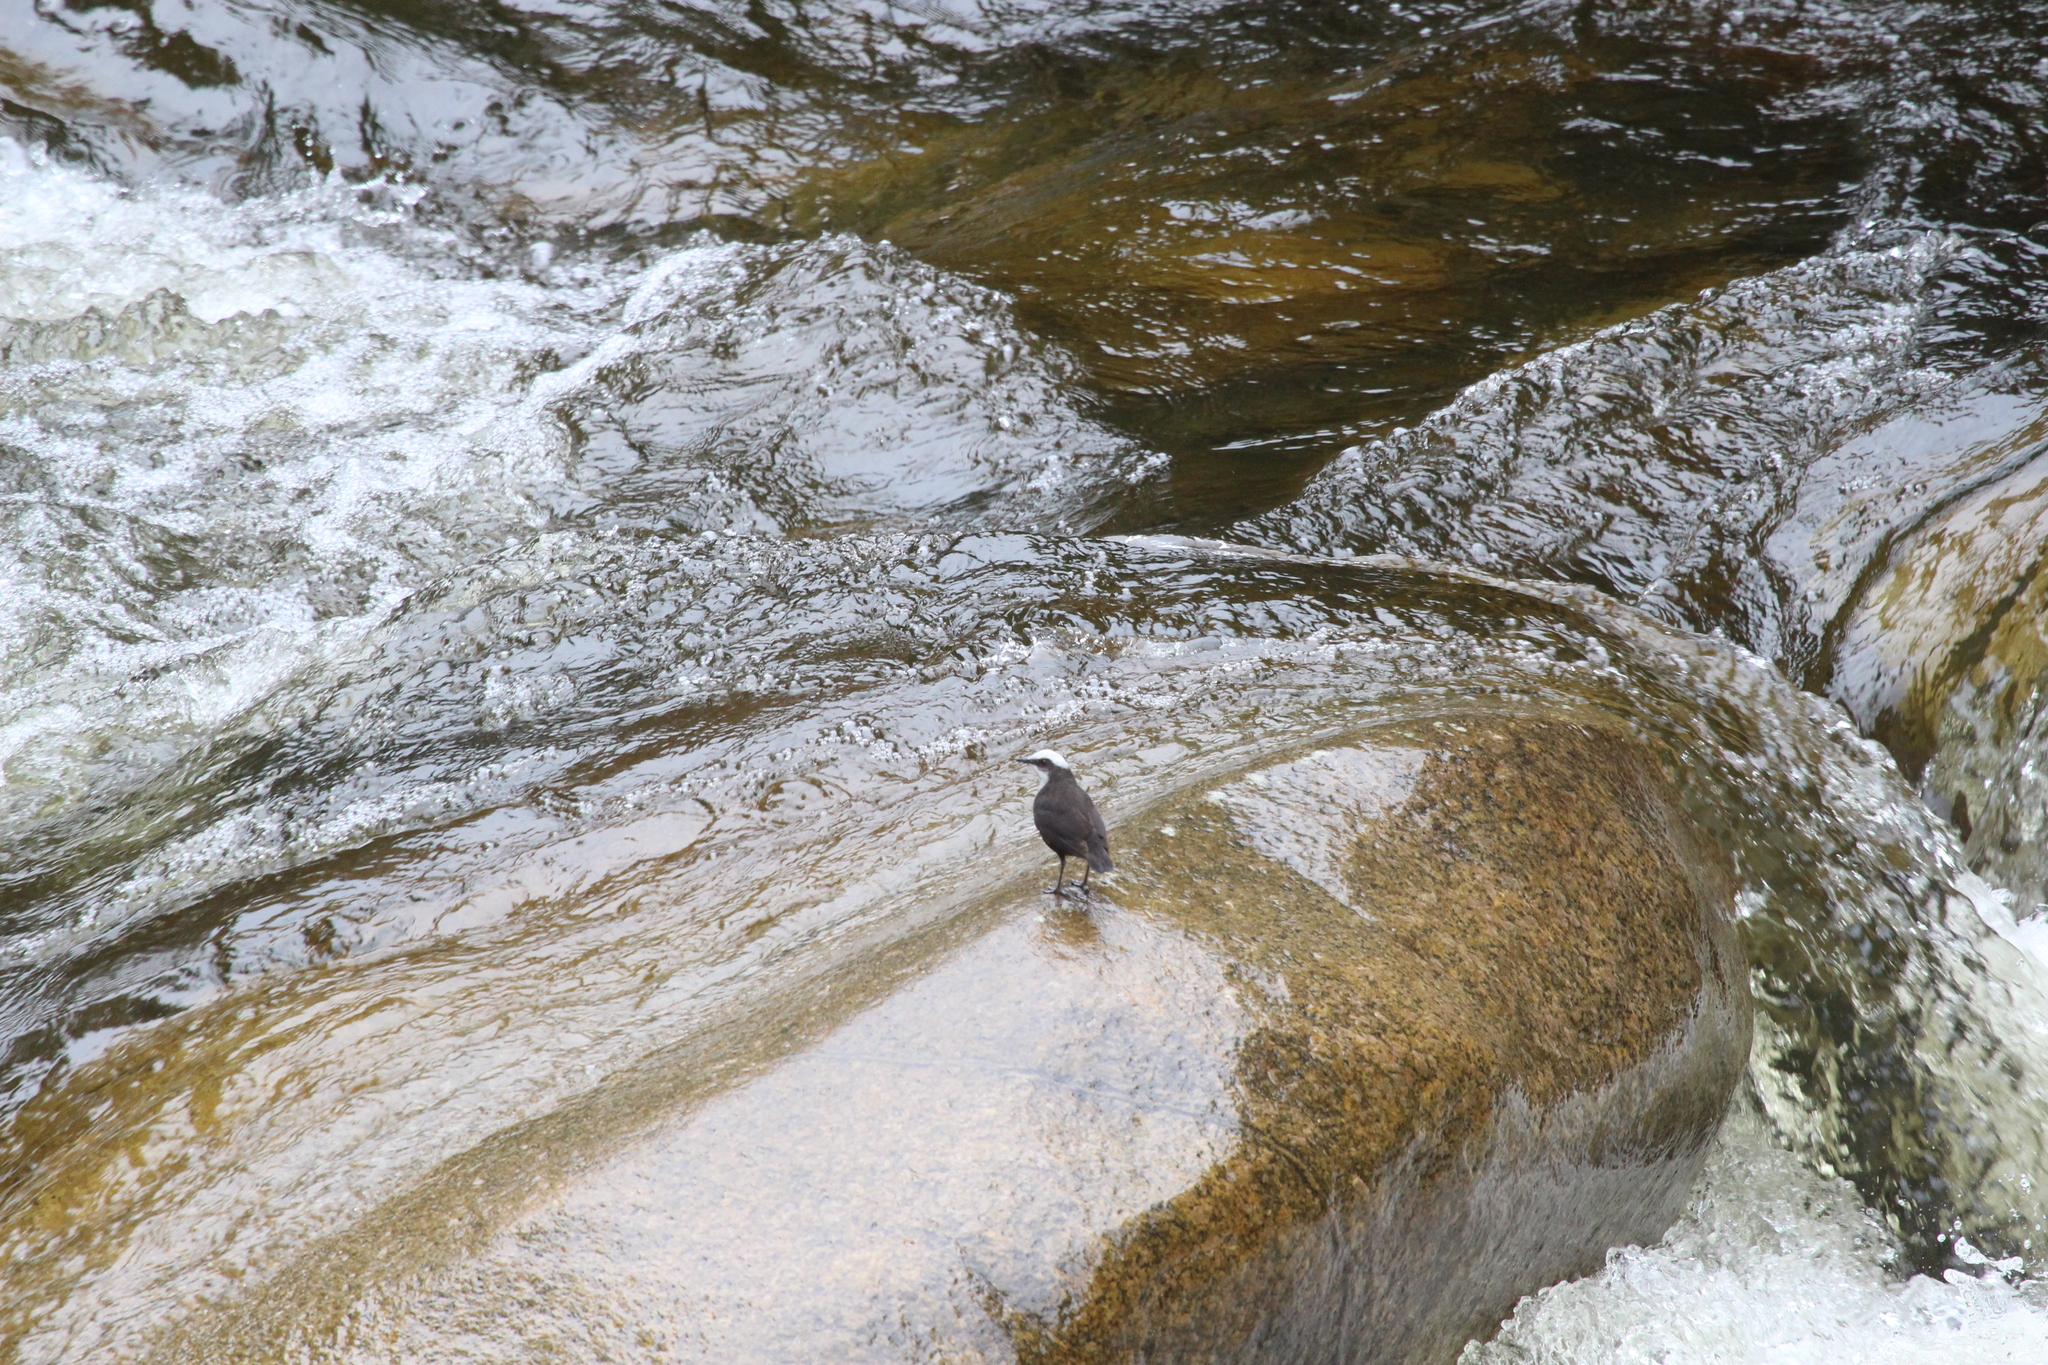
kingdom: Animalia
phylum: Chordata
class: Aves
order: Passeriformes
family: Cinclidae
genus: Cinclus
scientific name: Cinclus leucocephalus
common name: White-capped dipper
